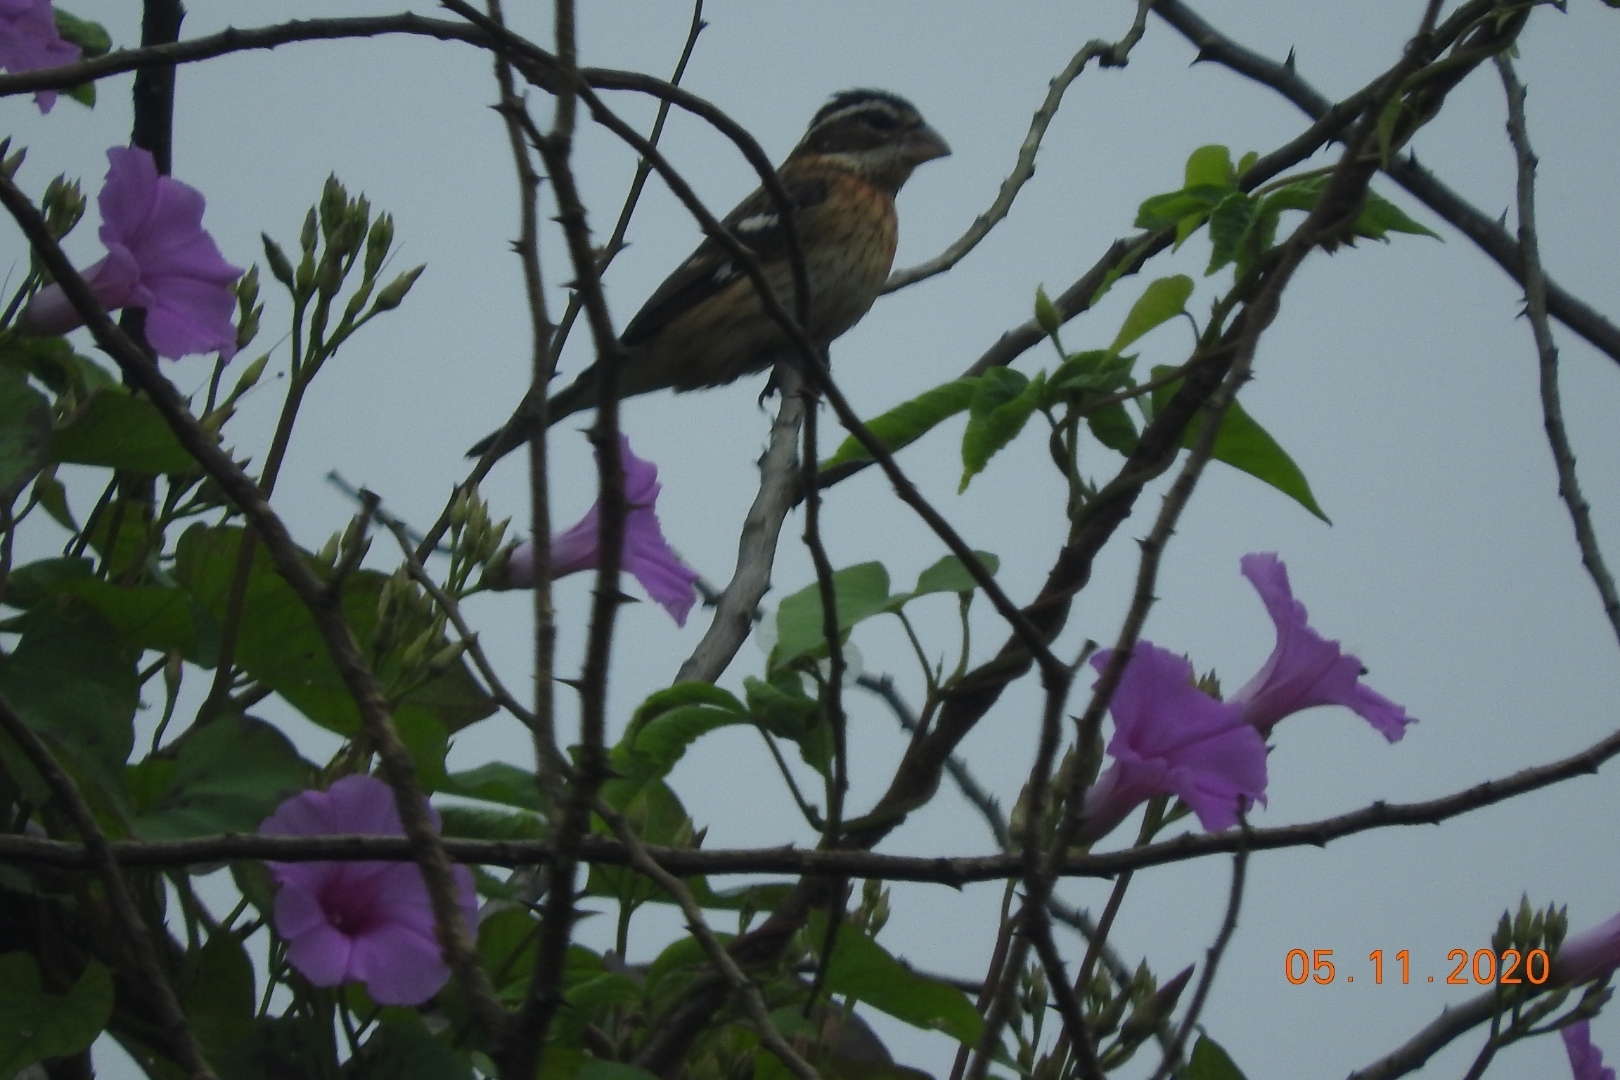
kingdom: Animalia
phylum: Chordata
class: Aves
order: Passeriformes
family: Cardinalidae
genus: Pheucticus
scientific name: Pheucticus ludovicianus
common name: Rose-breasted grosbeak
